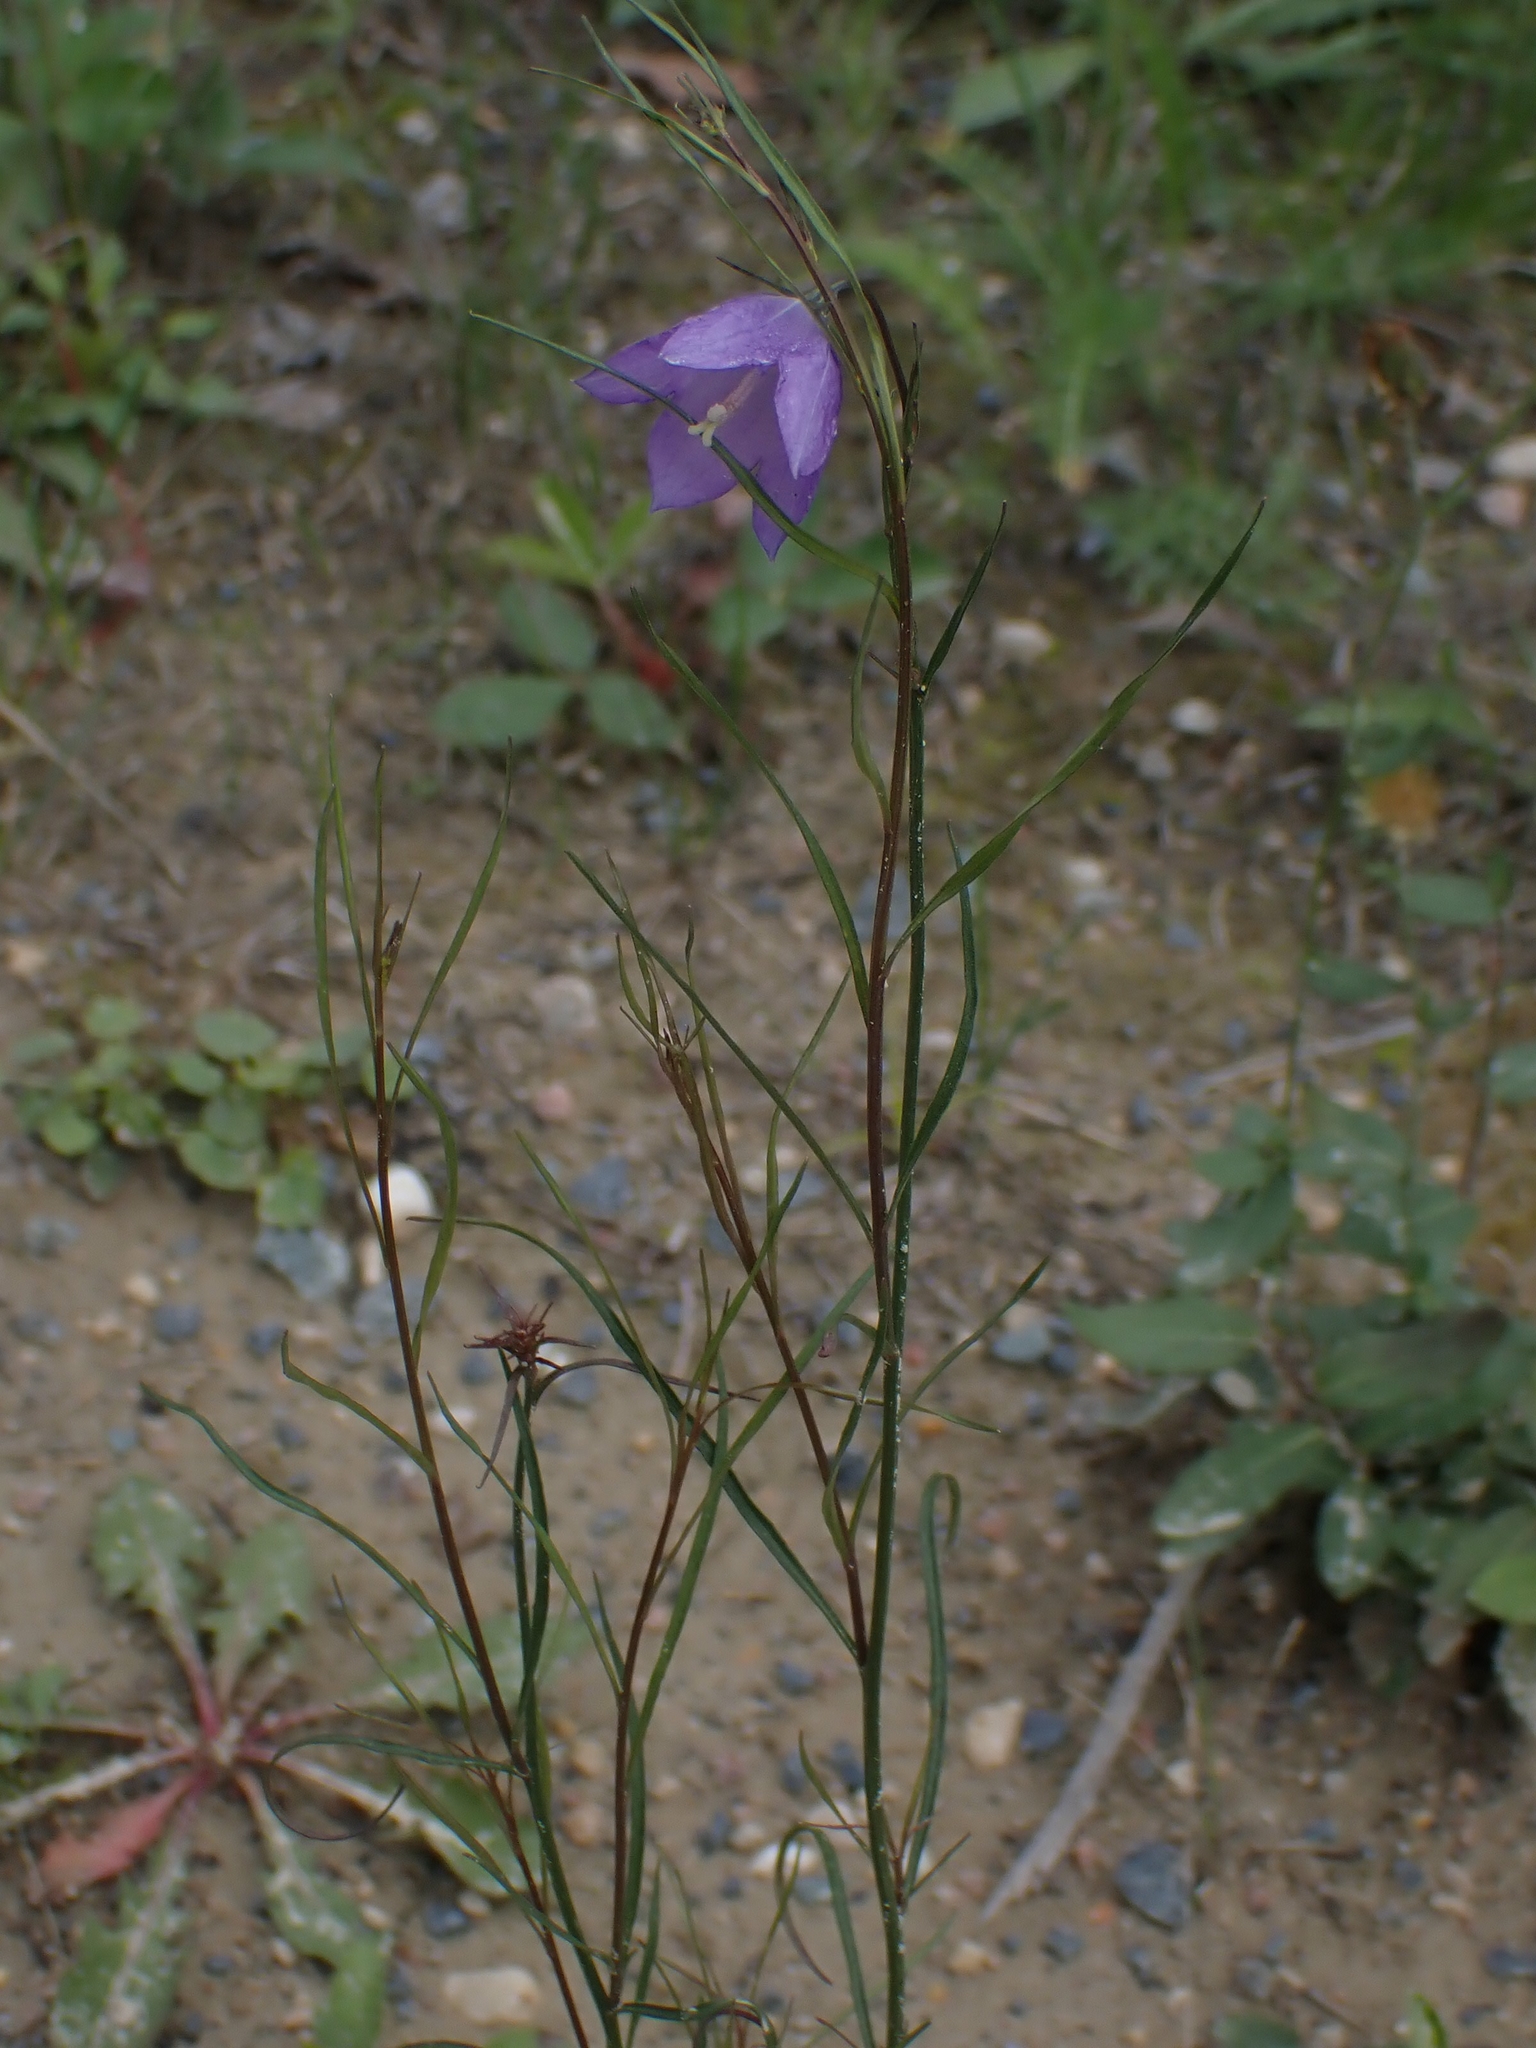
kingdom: Plantae
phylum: Tracheophyta
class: Magnoliopsida
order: Asterales
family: Campanulaceae
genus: Campanula
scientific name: Campanula petiolata
